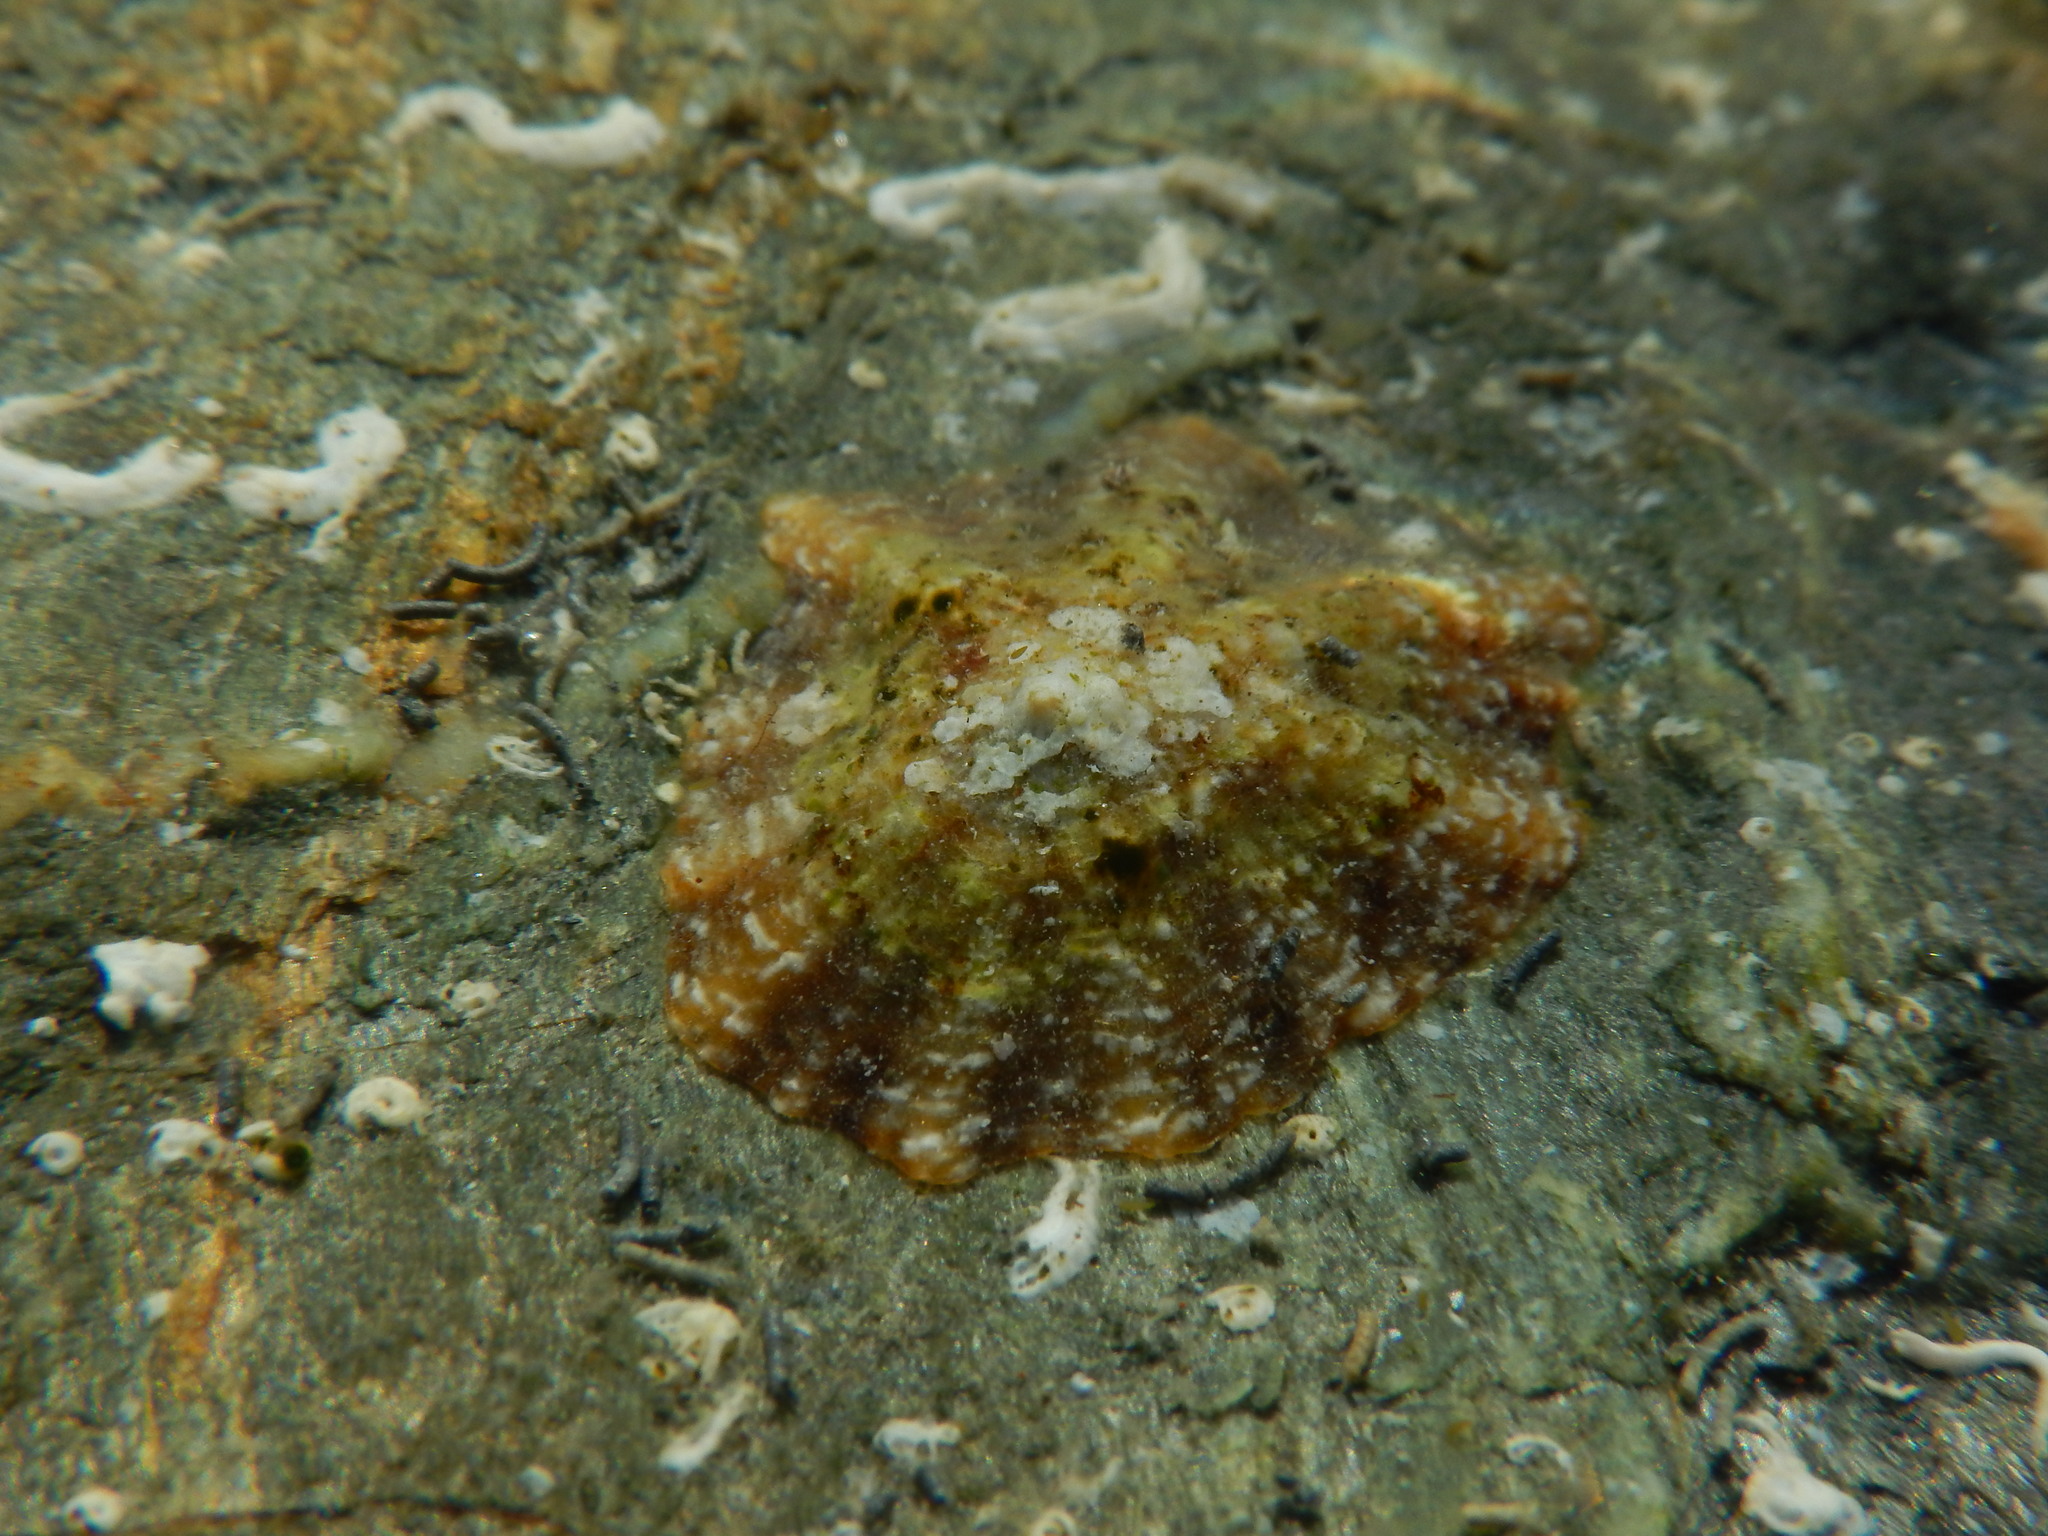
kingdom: Animalia
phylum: Mollusca
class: Gastropoda
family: Patellidae
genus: Patella
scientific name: Patella caerulea
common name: Mediterranean limpet
